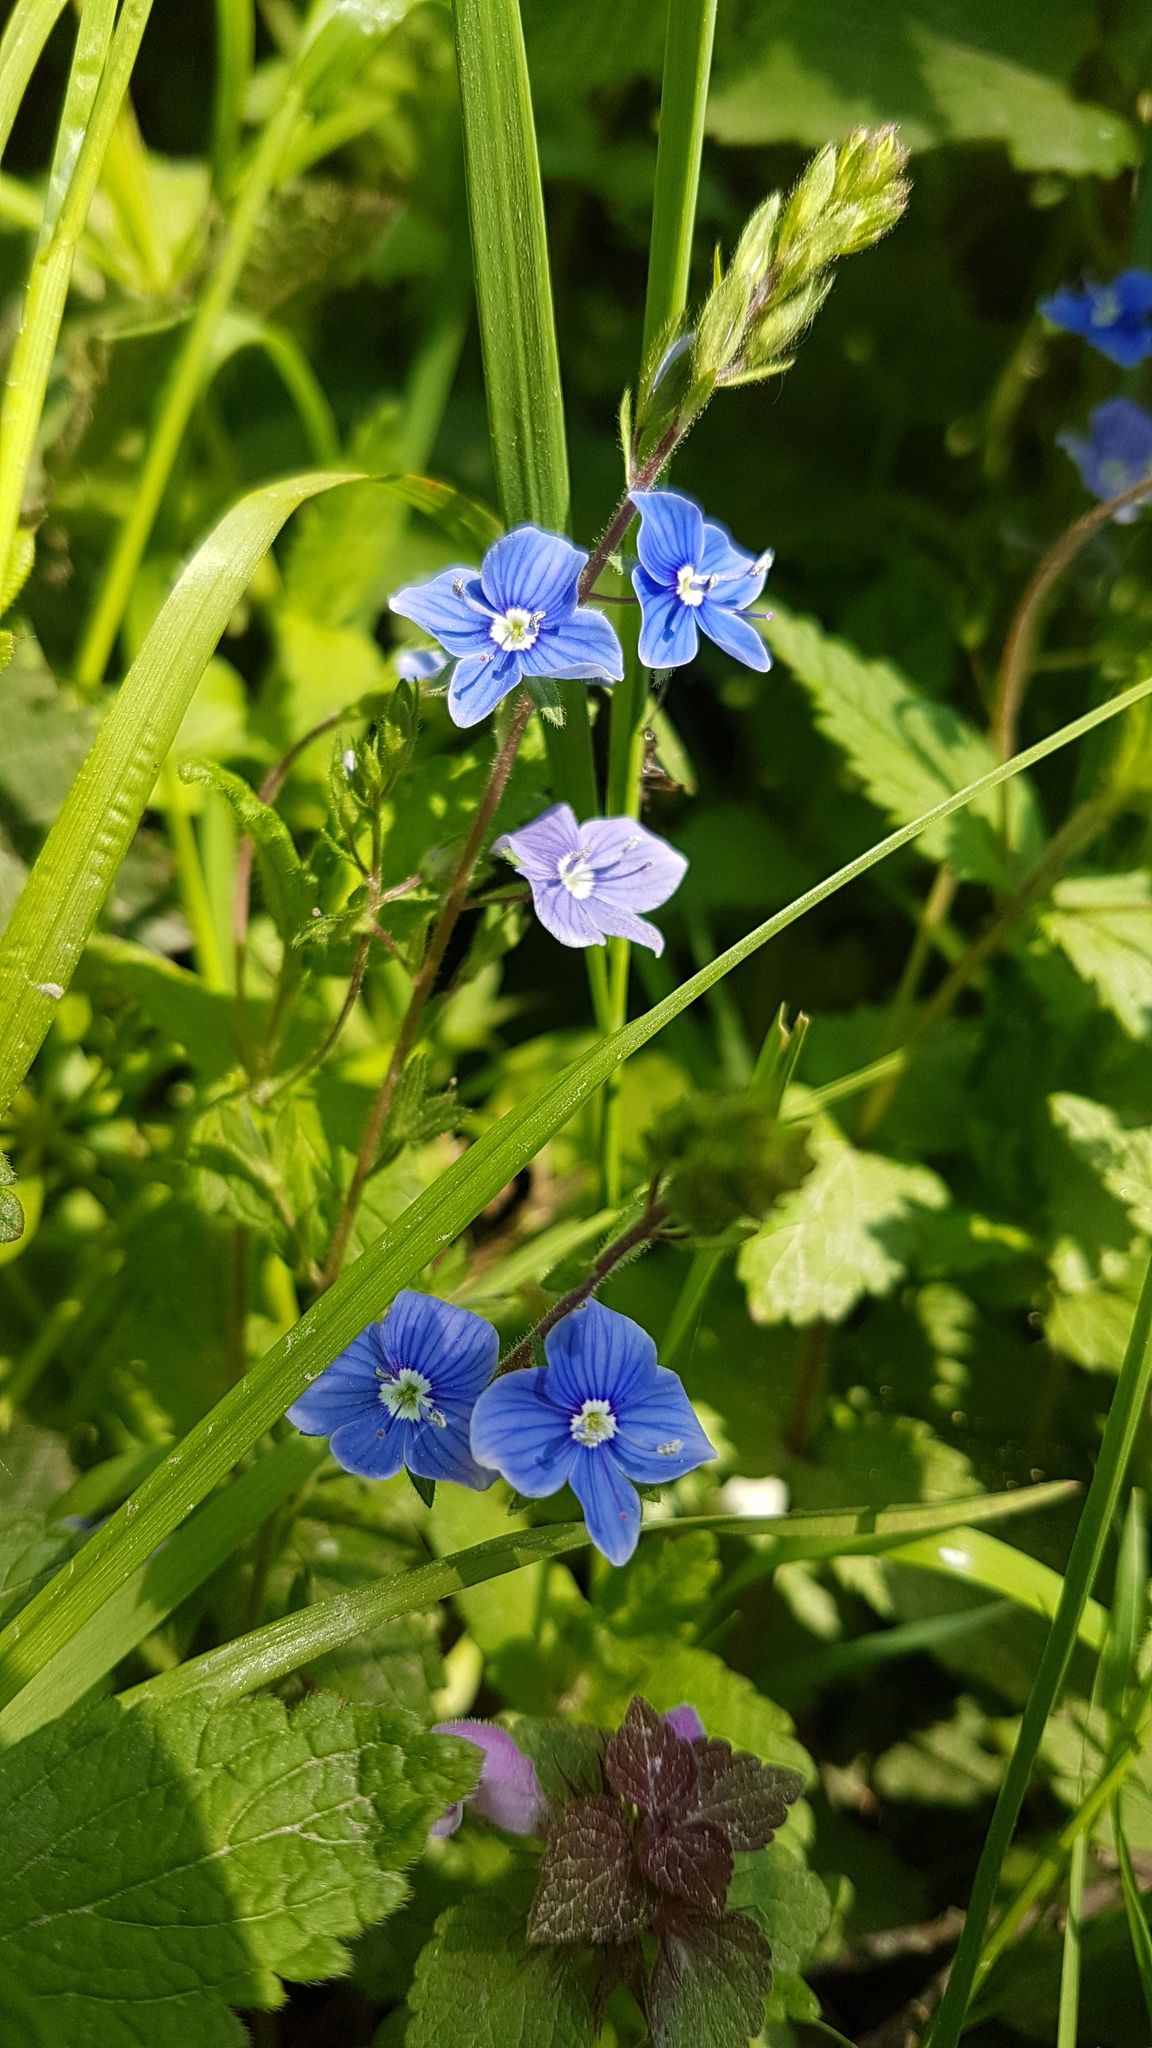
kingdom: Plantae
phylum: Tracheophyta
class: Magnoliopsida
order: Lamiales
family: Plantaginaceae
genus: Veronica
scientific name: Veronica chamaedrys
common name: Germander speedwell
